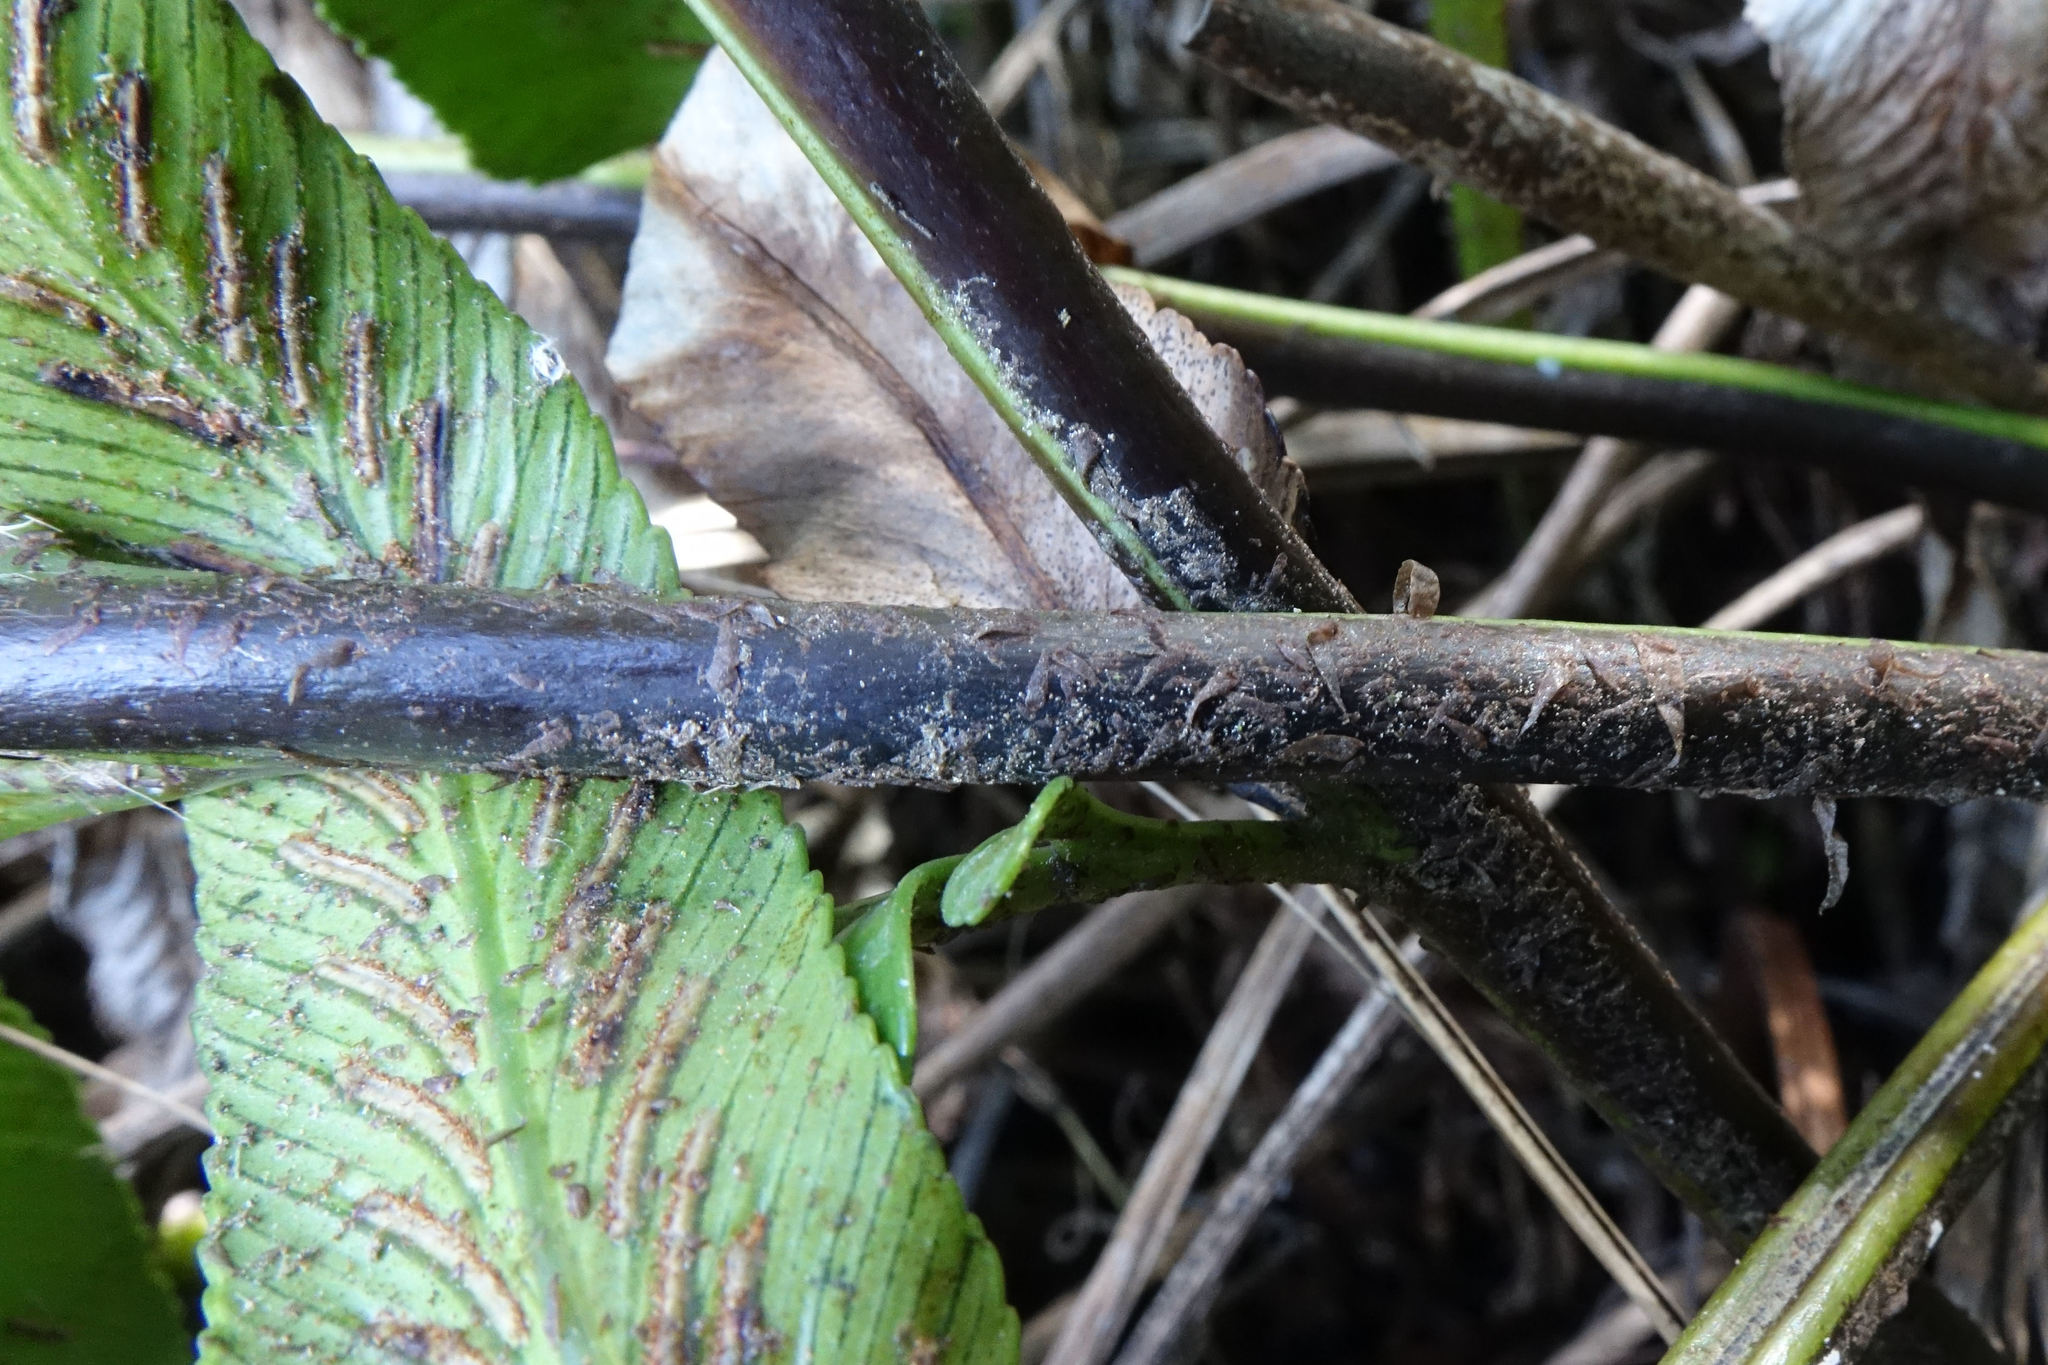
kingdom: Plantae
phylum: Tracheophyta
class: Polypodiopsida
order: Polypodiales
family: Aspleniaceae
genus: Asplenium
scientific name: Asplenium obtusatum
